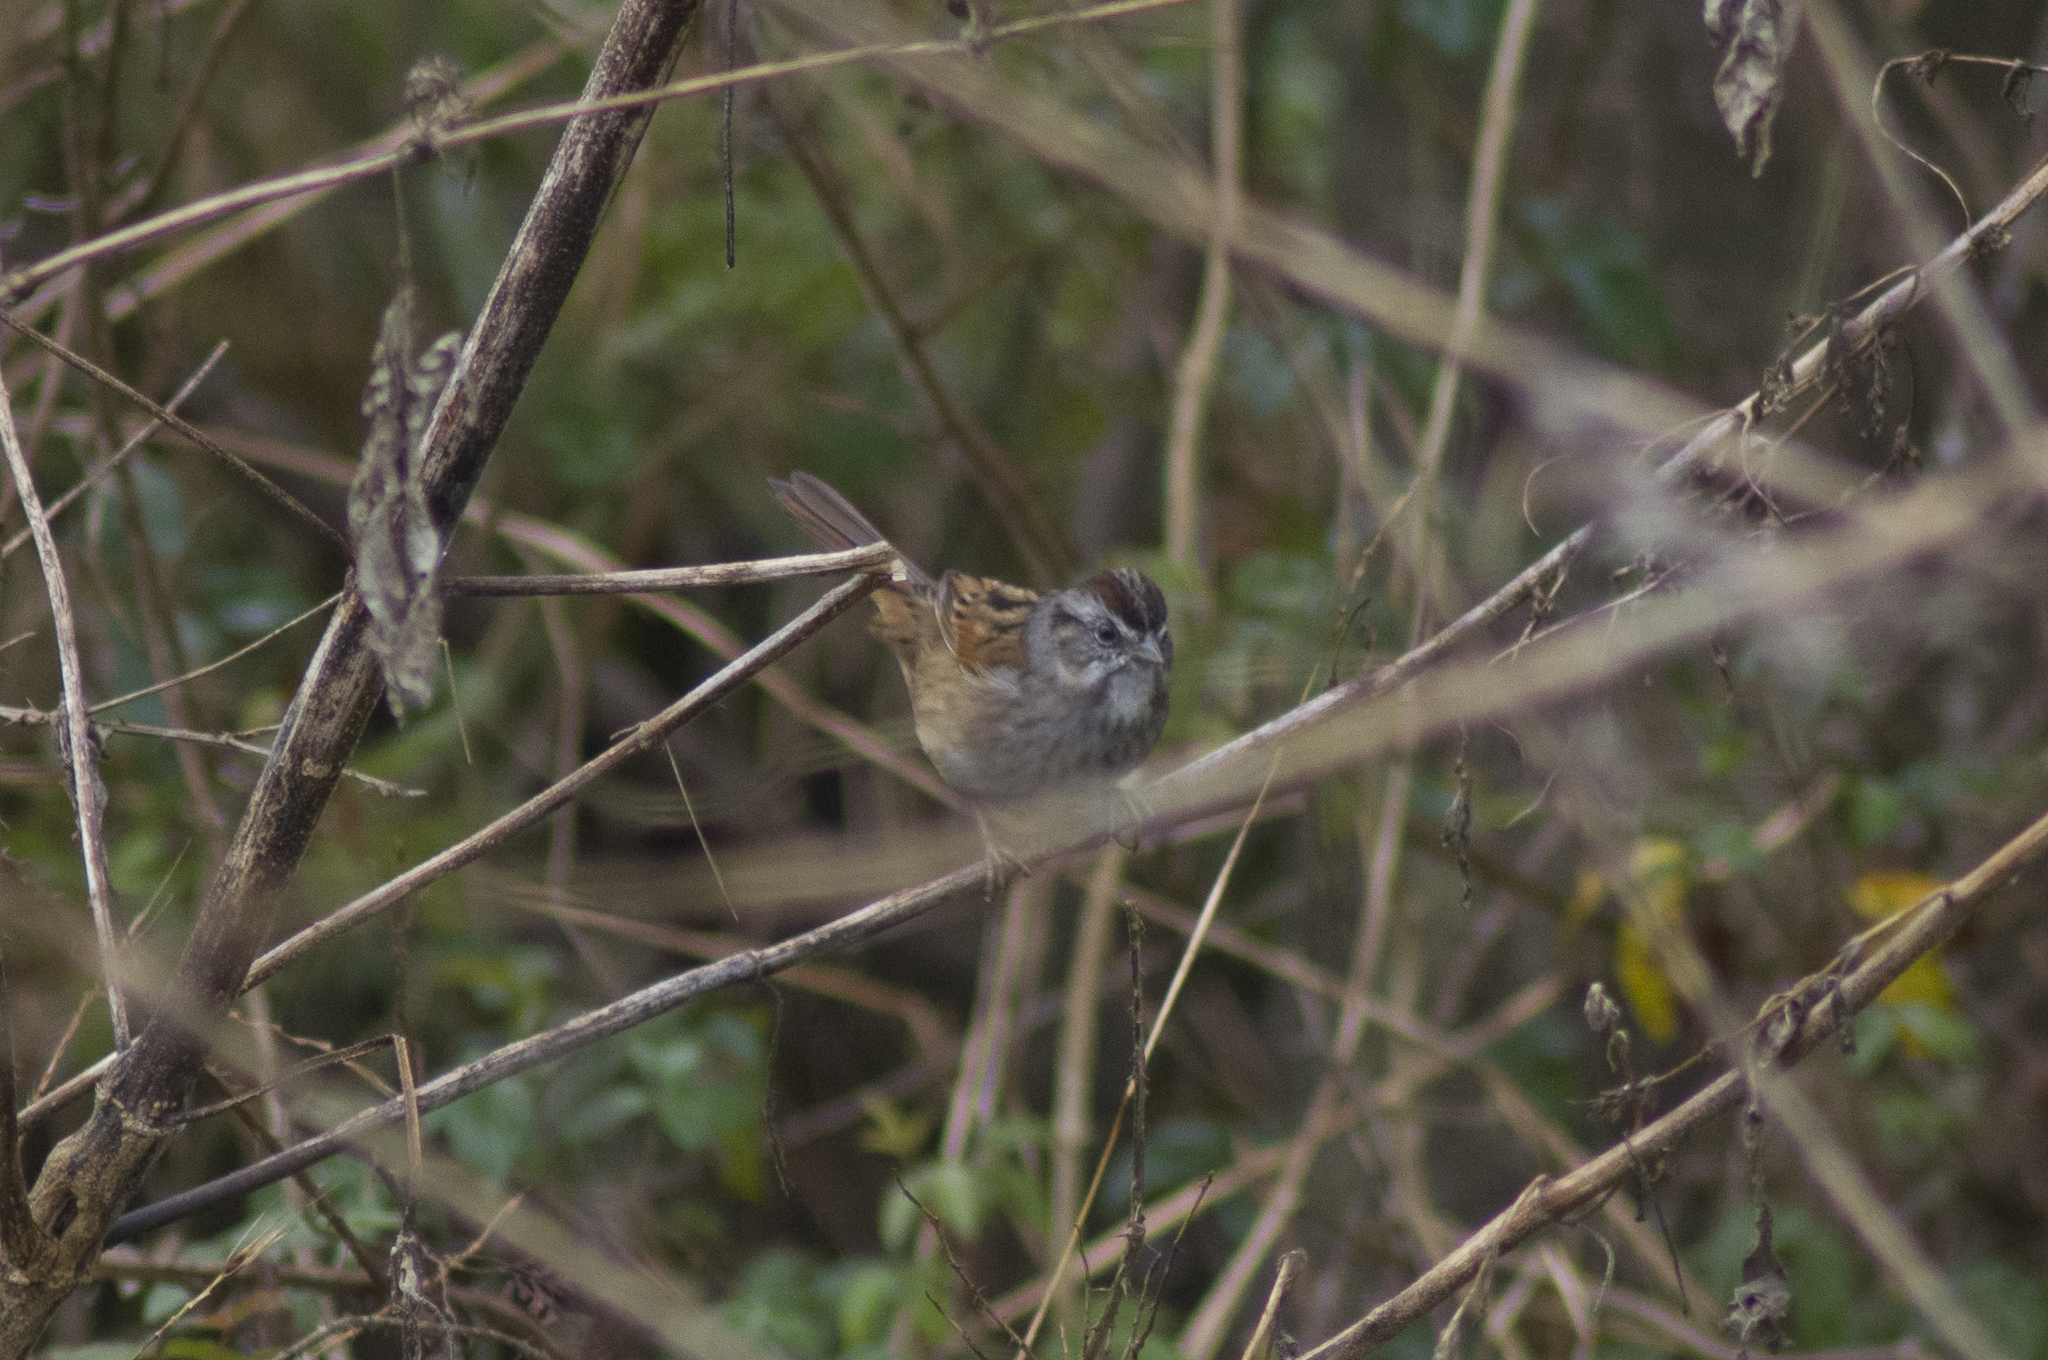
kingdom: Animalia
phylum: Chordata
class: Aves
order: Passeriformes
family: Passerellidae
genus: Melospiza
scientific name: Melospiza georgiana
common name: Swamp sparrow
